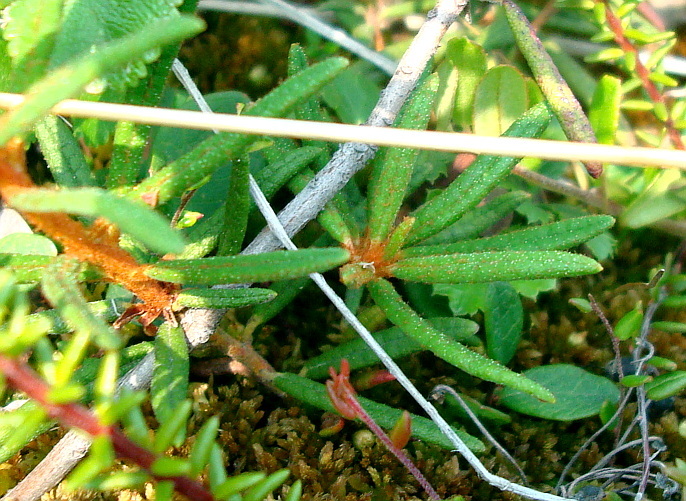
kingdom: Plantae
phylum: Tracheophyta
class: Magnoliopsida
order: Ericales
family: Ericaceae
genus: Rhododendron
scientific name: Rhododendron tomentosum
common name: Marsh labrador tea
